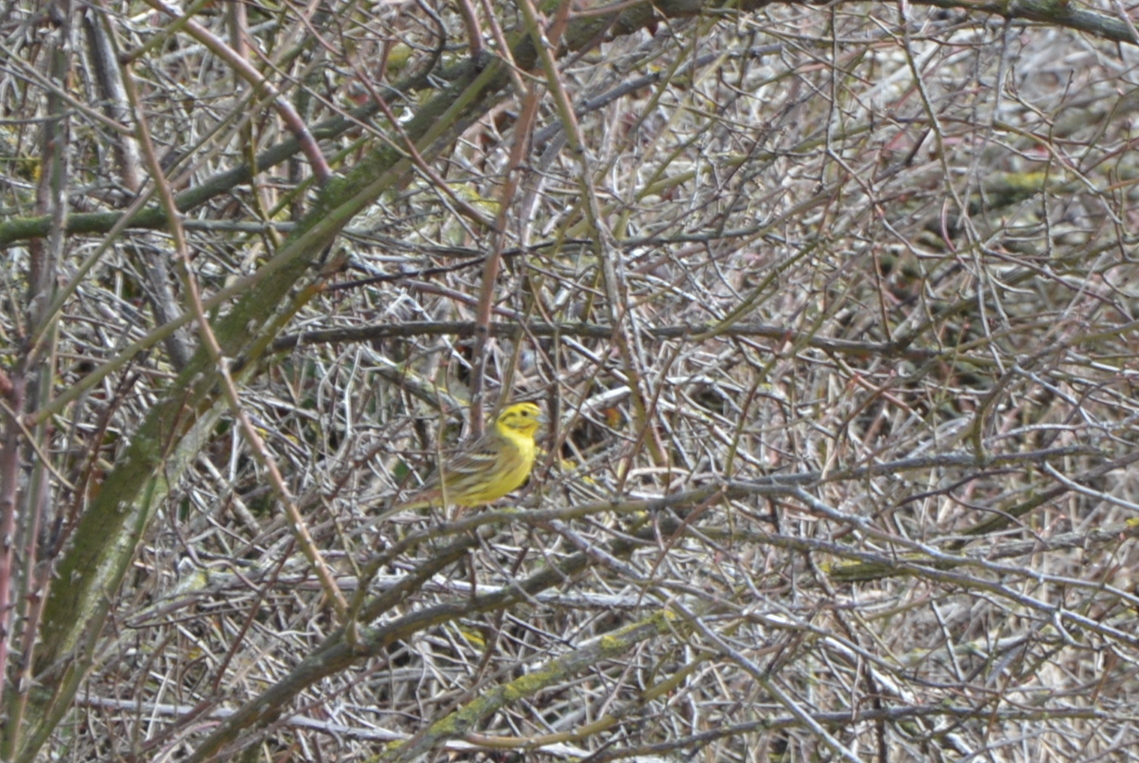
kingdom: Animalia
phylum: Chordata
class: Aves
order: Passeriformes
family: Emberizidae
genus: Emberiza
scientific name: Emberiza citrinella
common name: Yellowhammer
